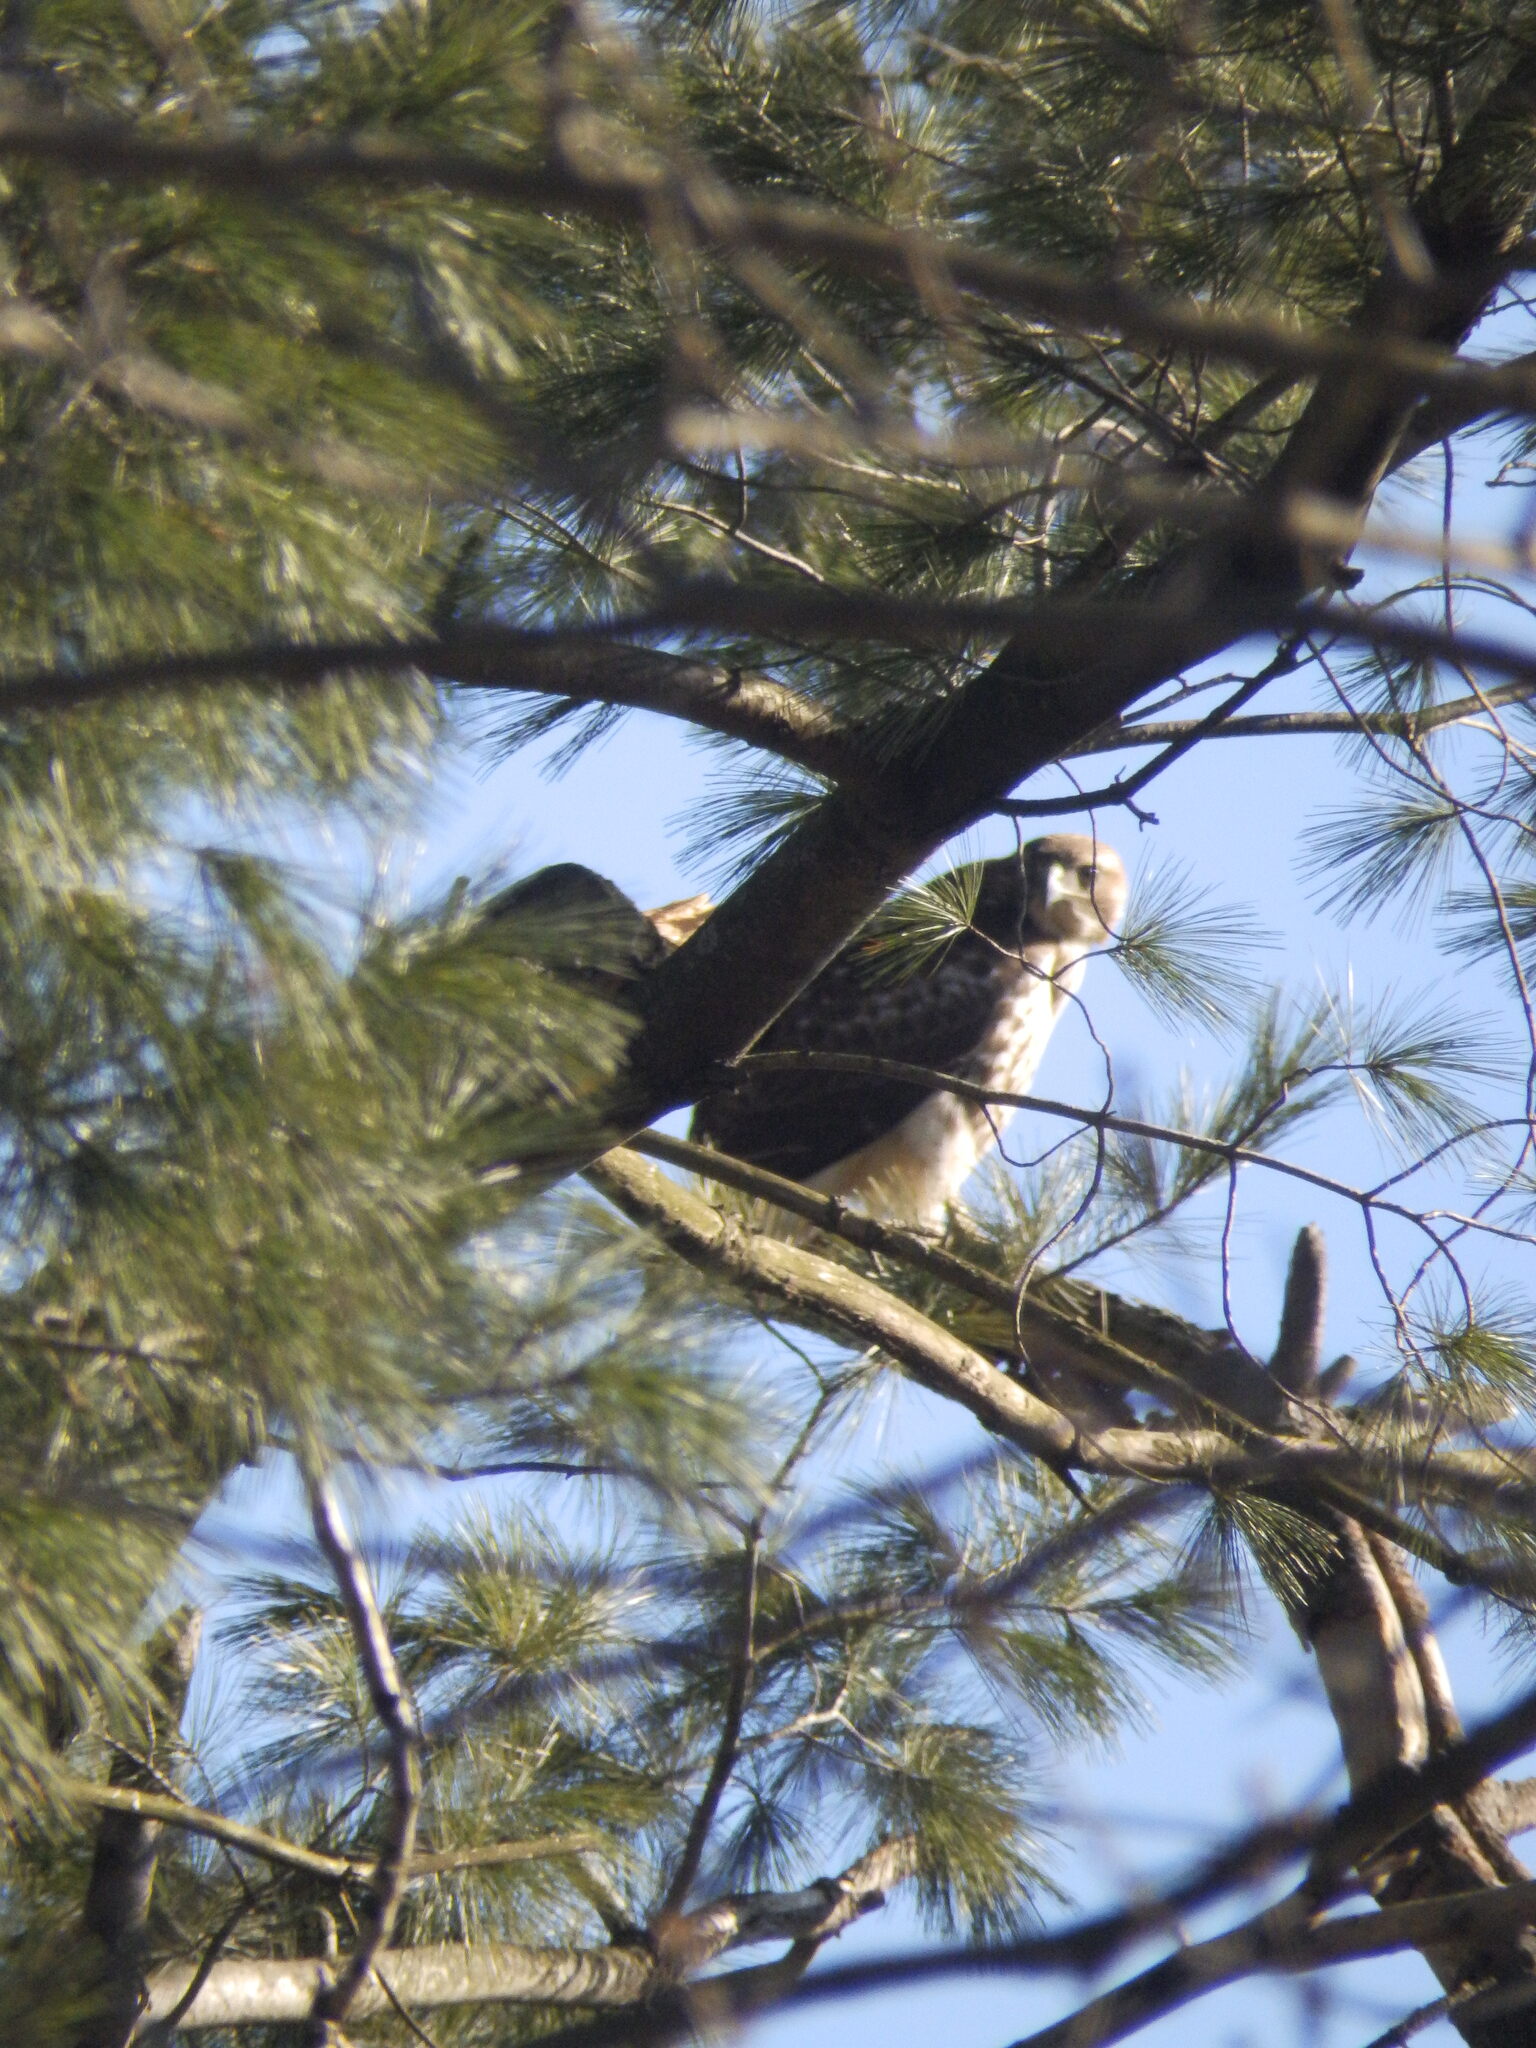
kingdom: Animalia
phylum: Chordata
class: Aves
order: Accipitriformes
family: Accipitridae
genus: Buteo
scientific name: Buteo jamaicensis
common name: Red-tailed hawk
